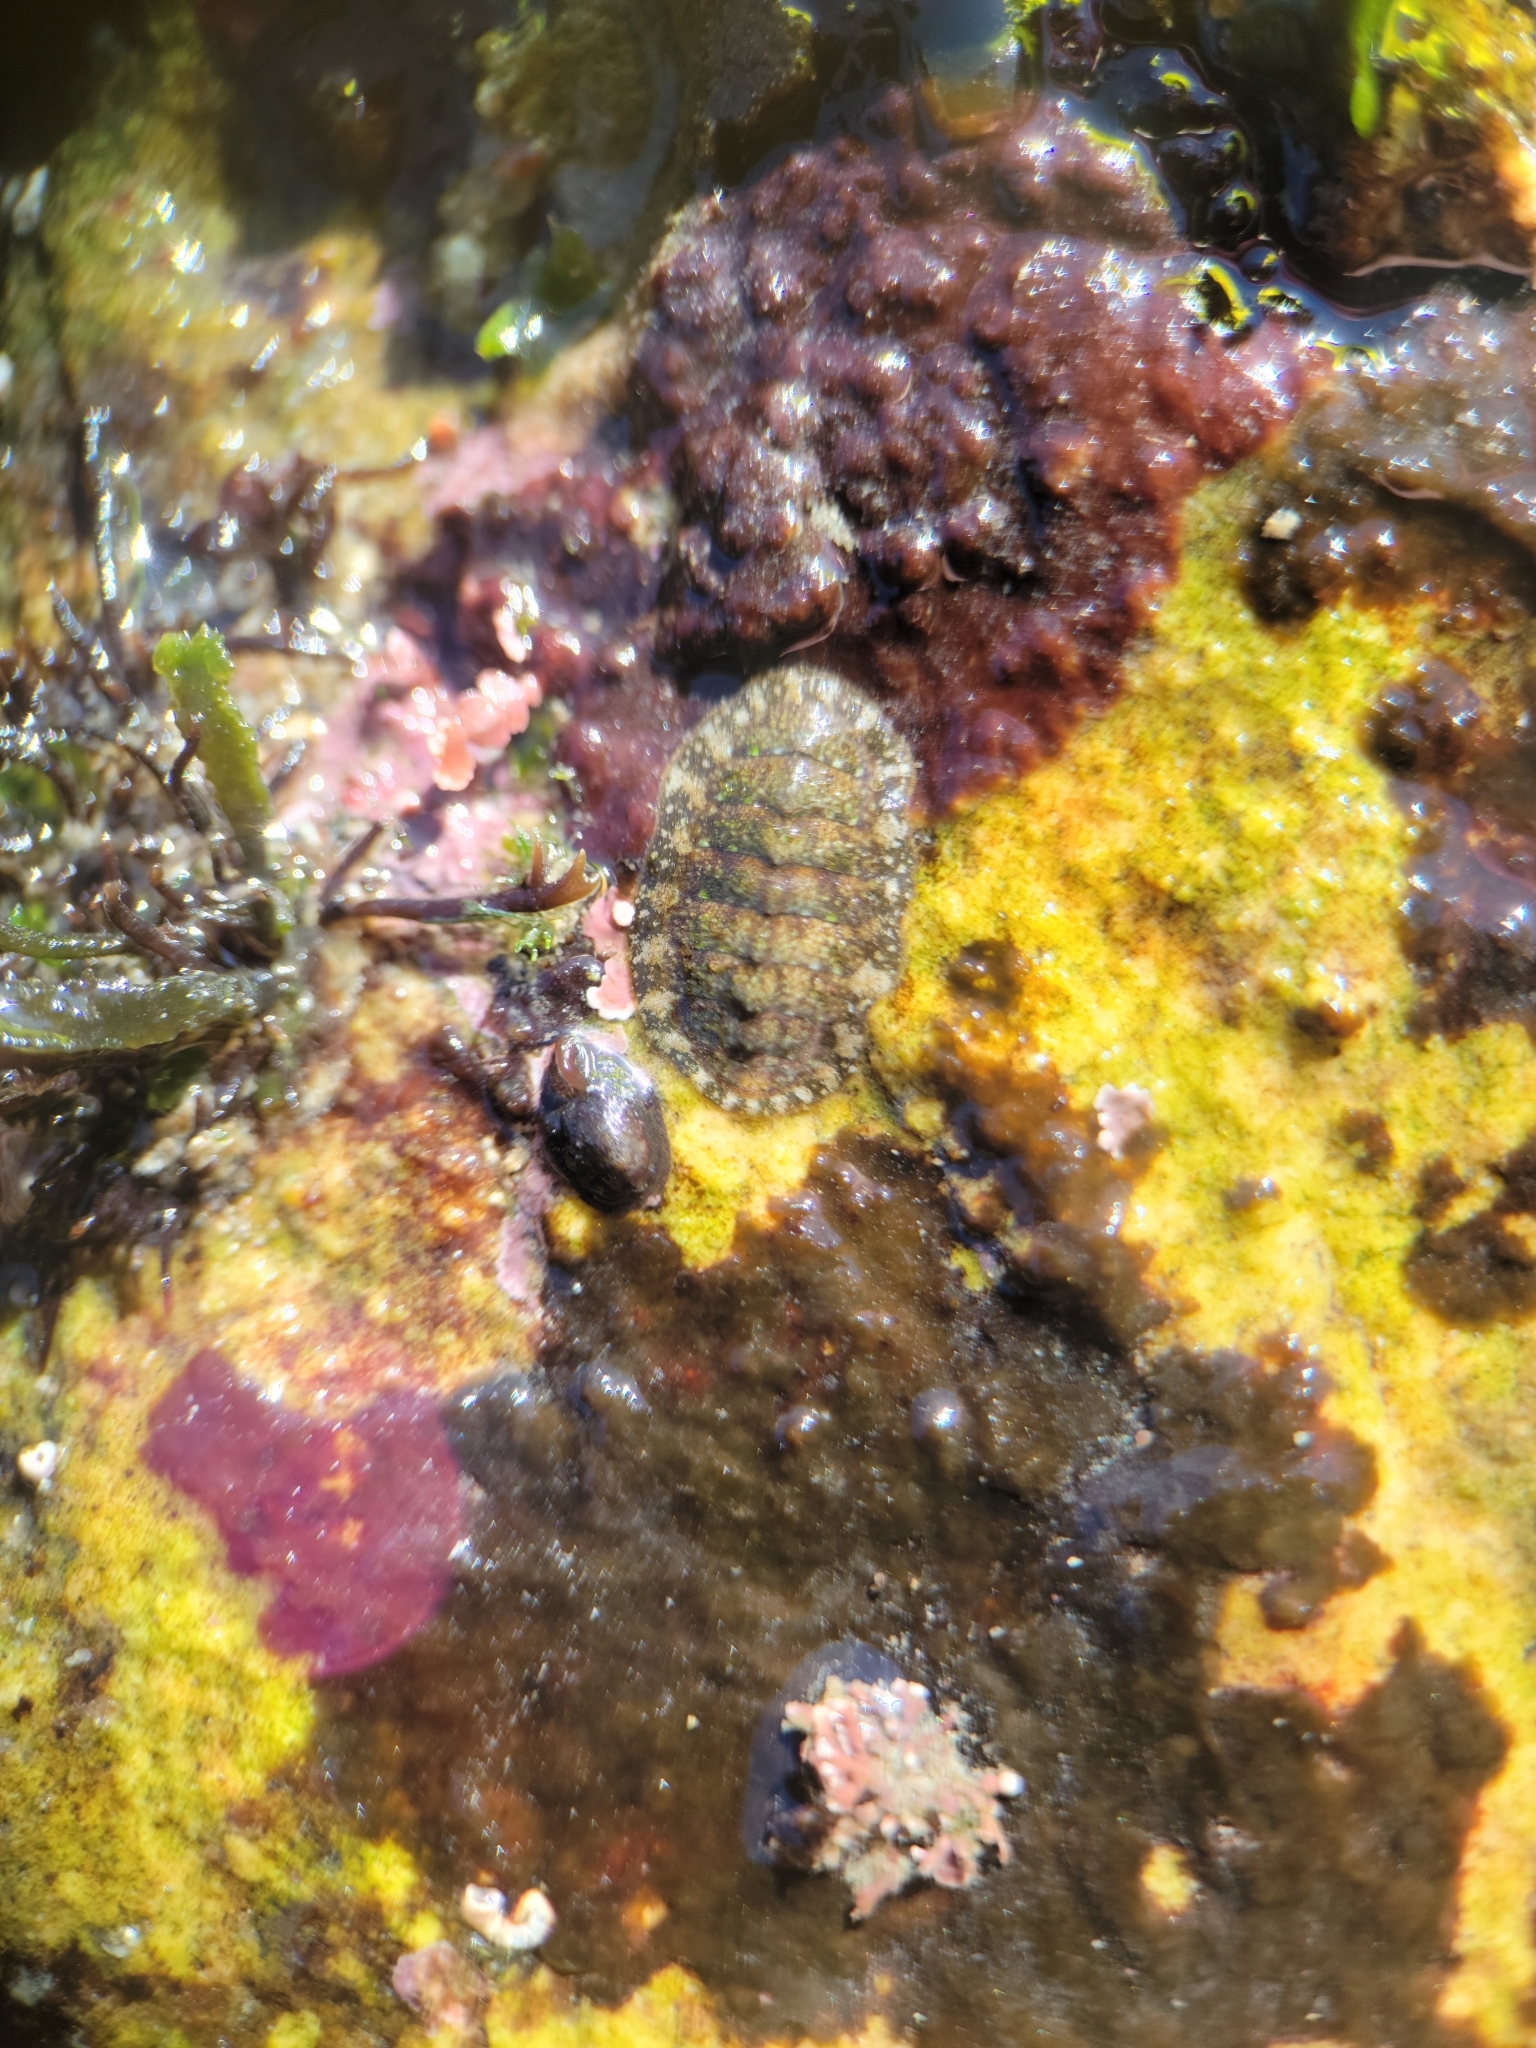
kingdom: Animalia
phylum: Mollusca
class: Polyplacophora
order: Chitonida
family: Tonicellidae
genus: Cyanoplax
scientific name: Cyanoplax dentiens
